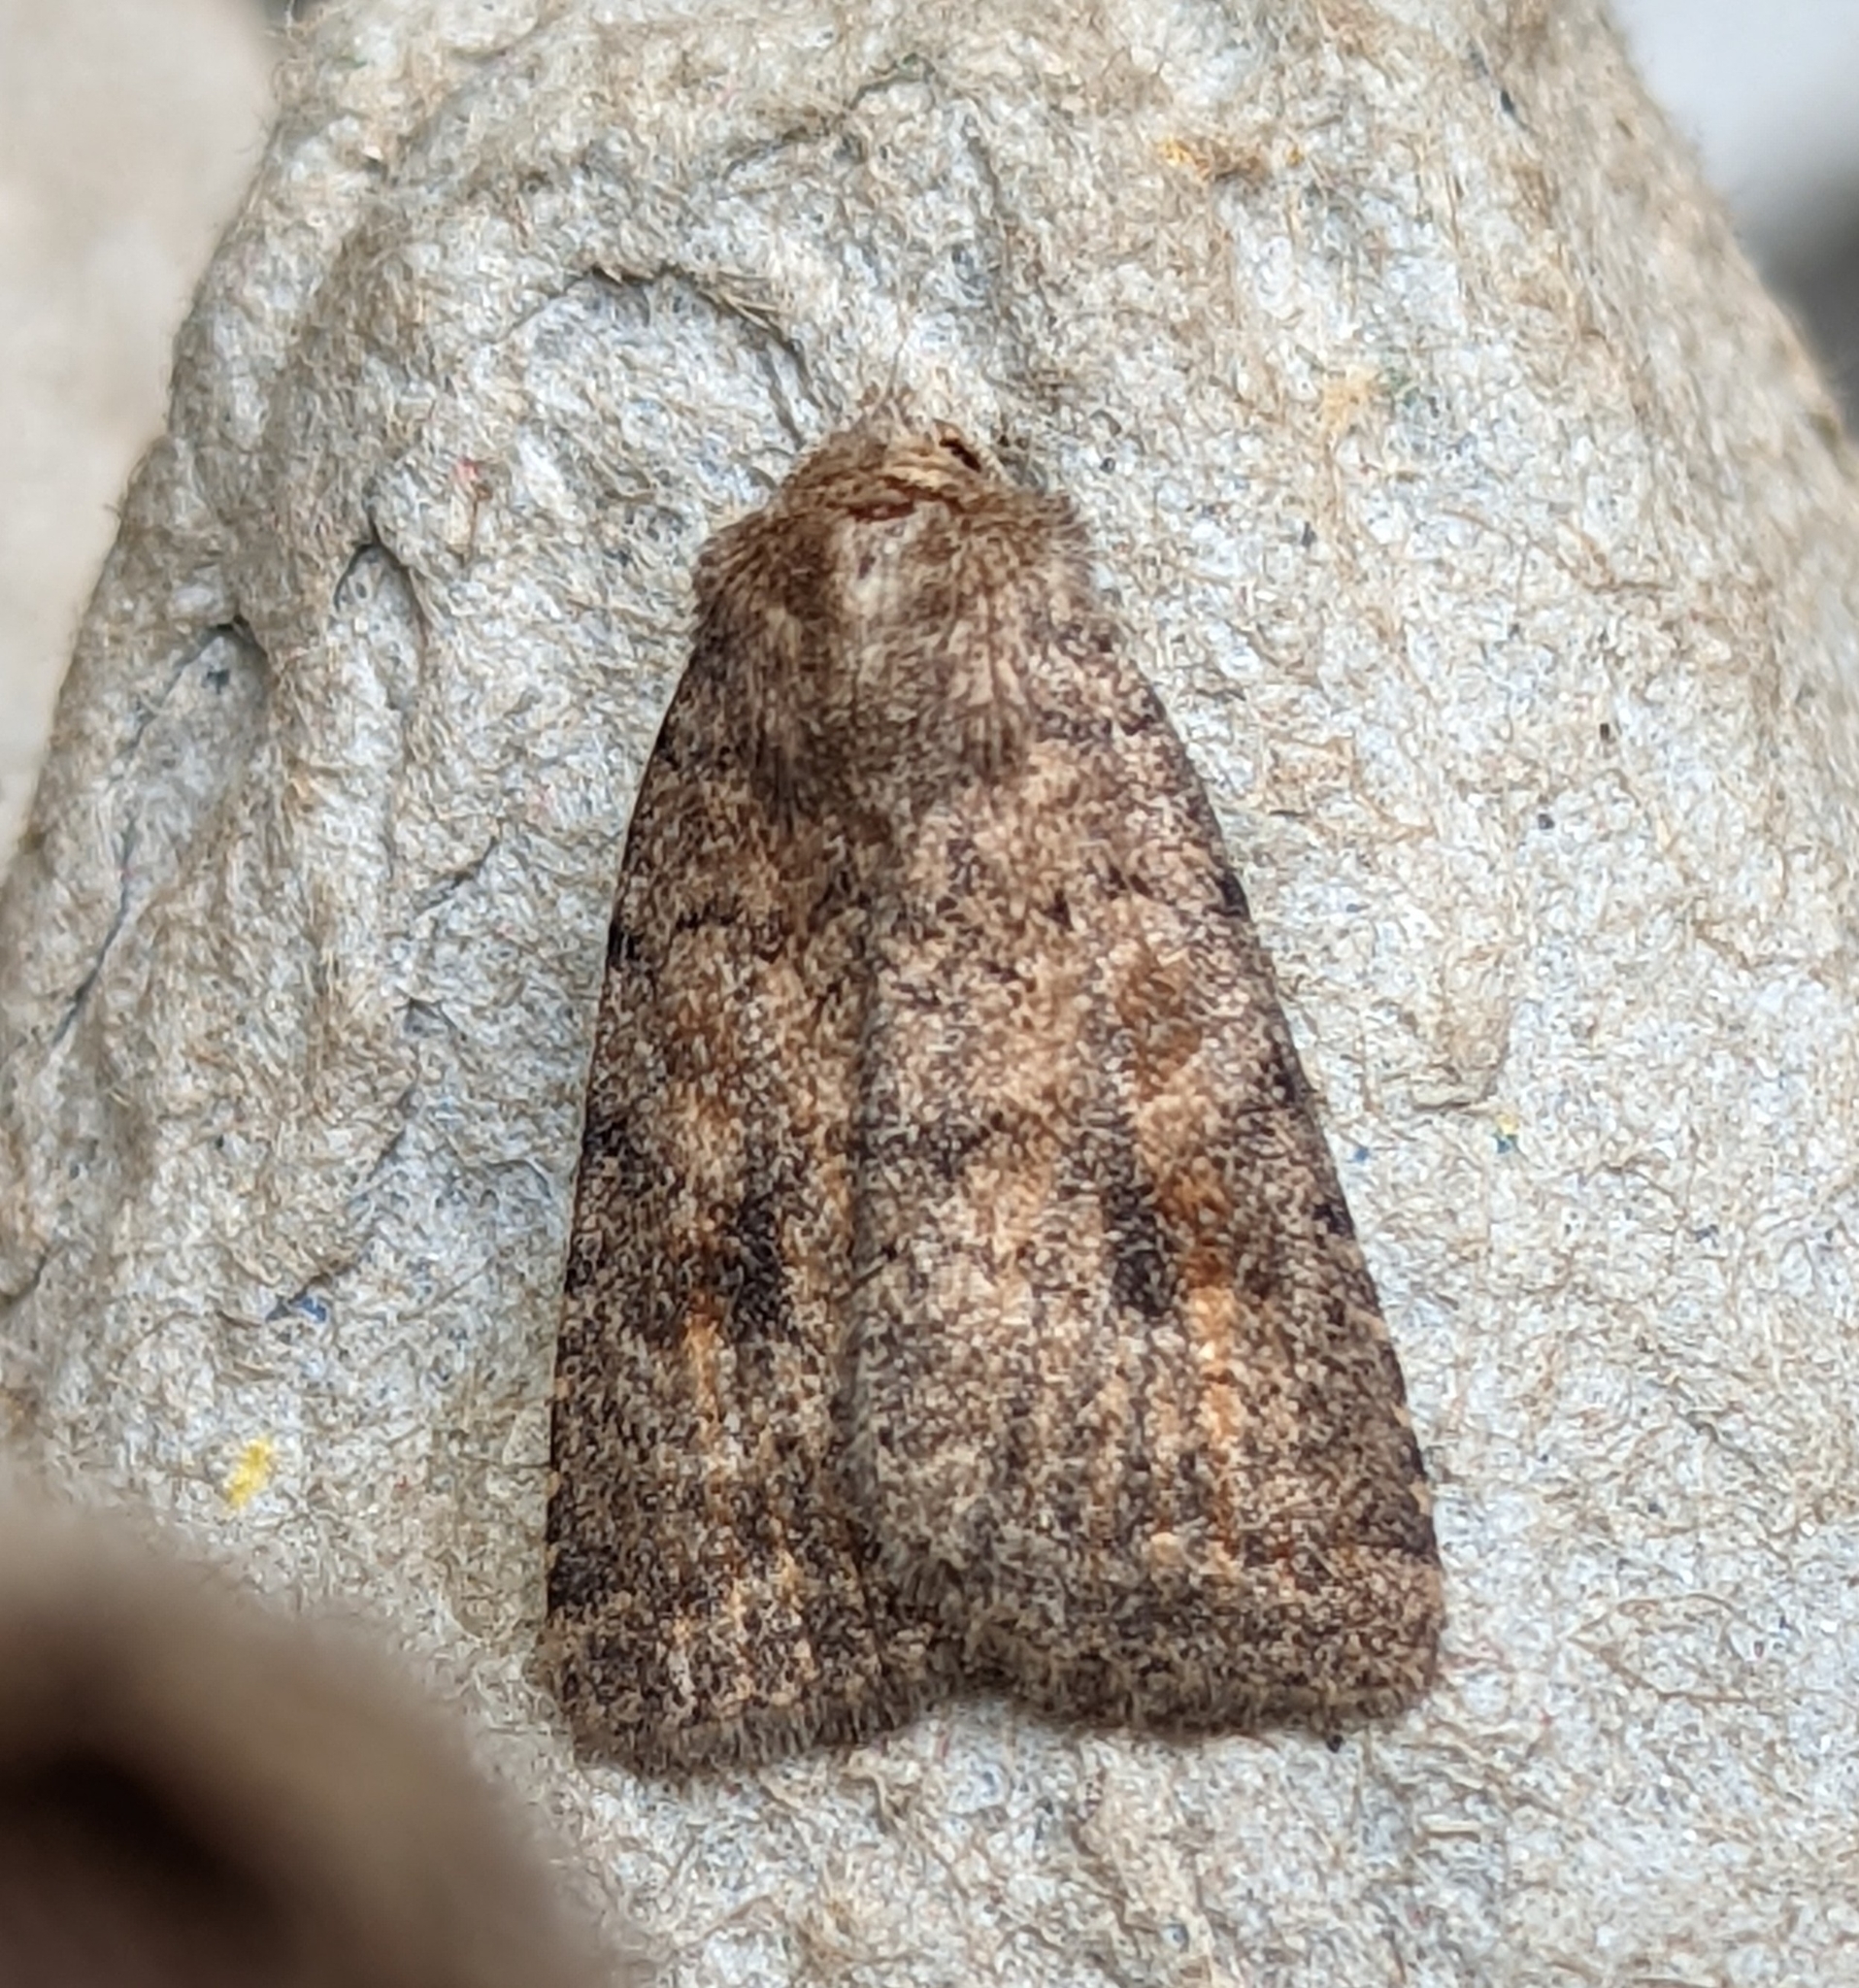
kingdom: Animalia
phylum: Arthropoda
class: Insecta
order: Lepidoptera
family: Noctuidae
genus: Caradrina
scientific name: Caradrina morpheus
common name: Mottled rustic
